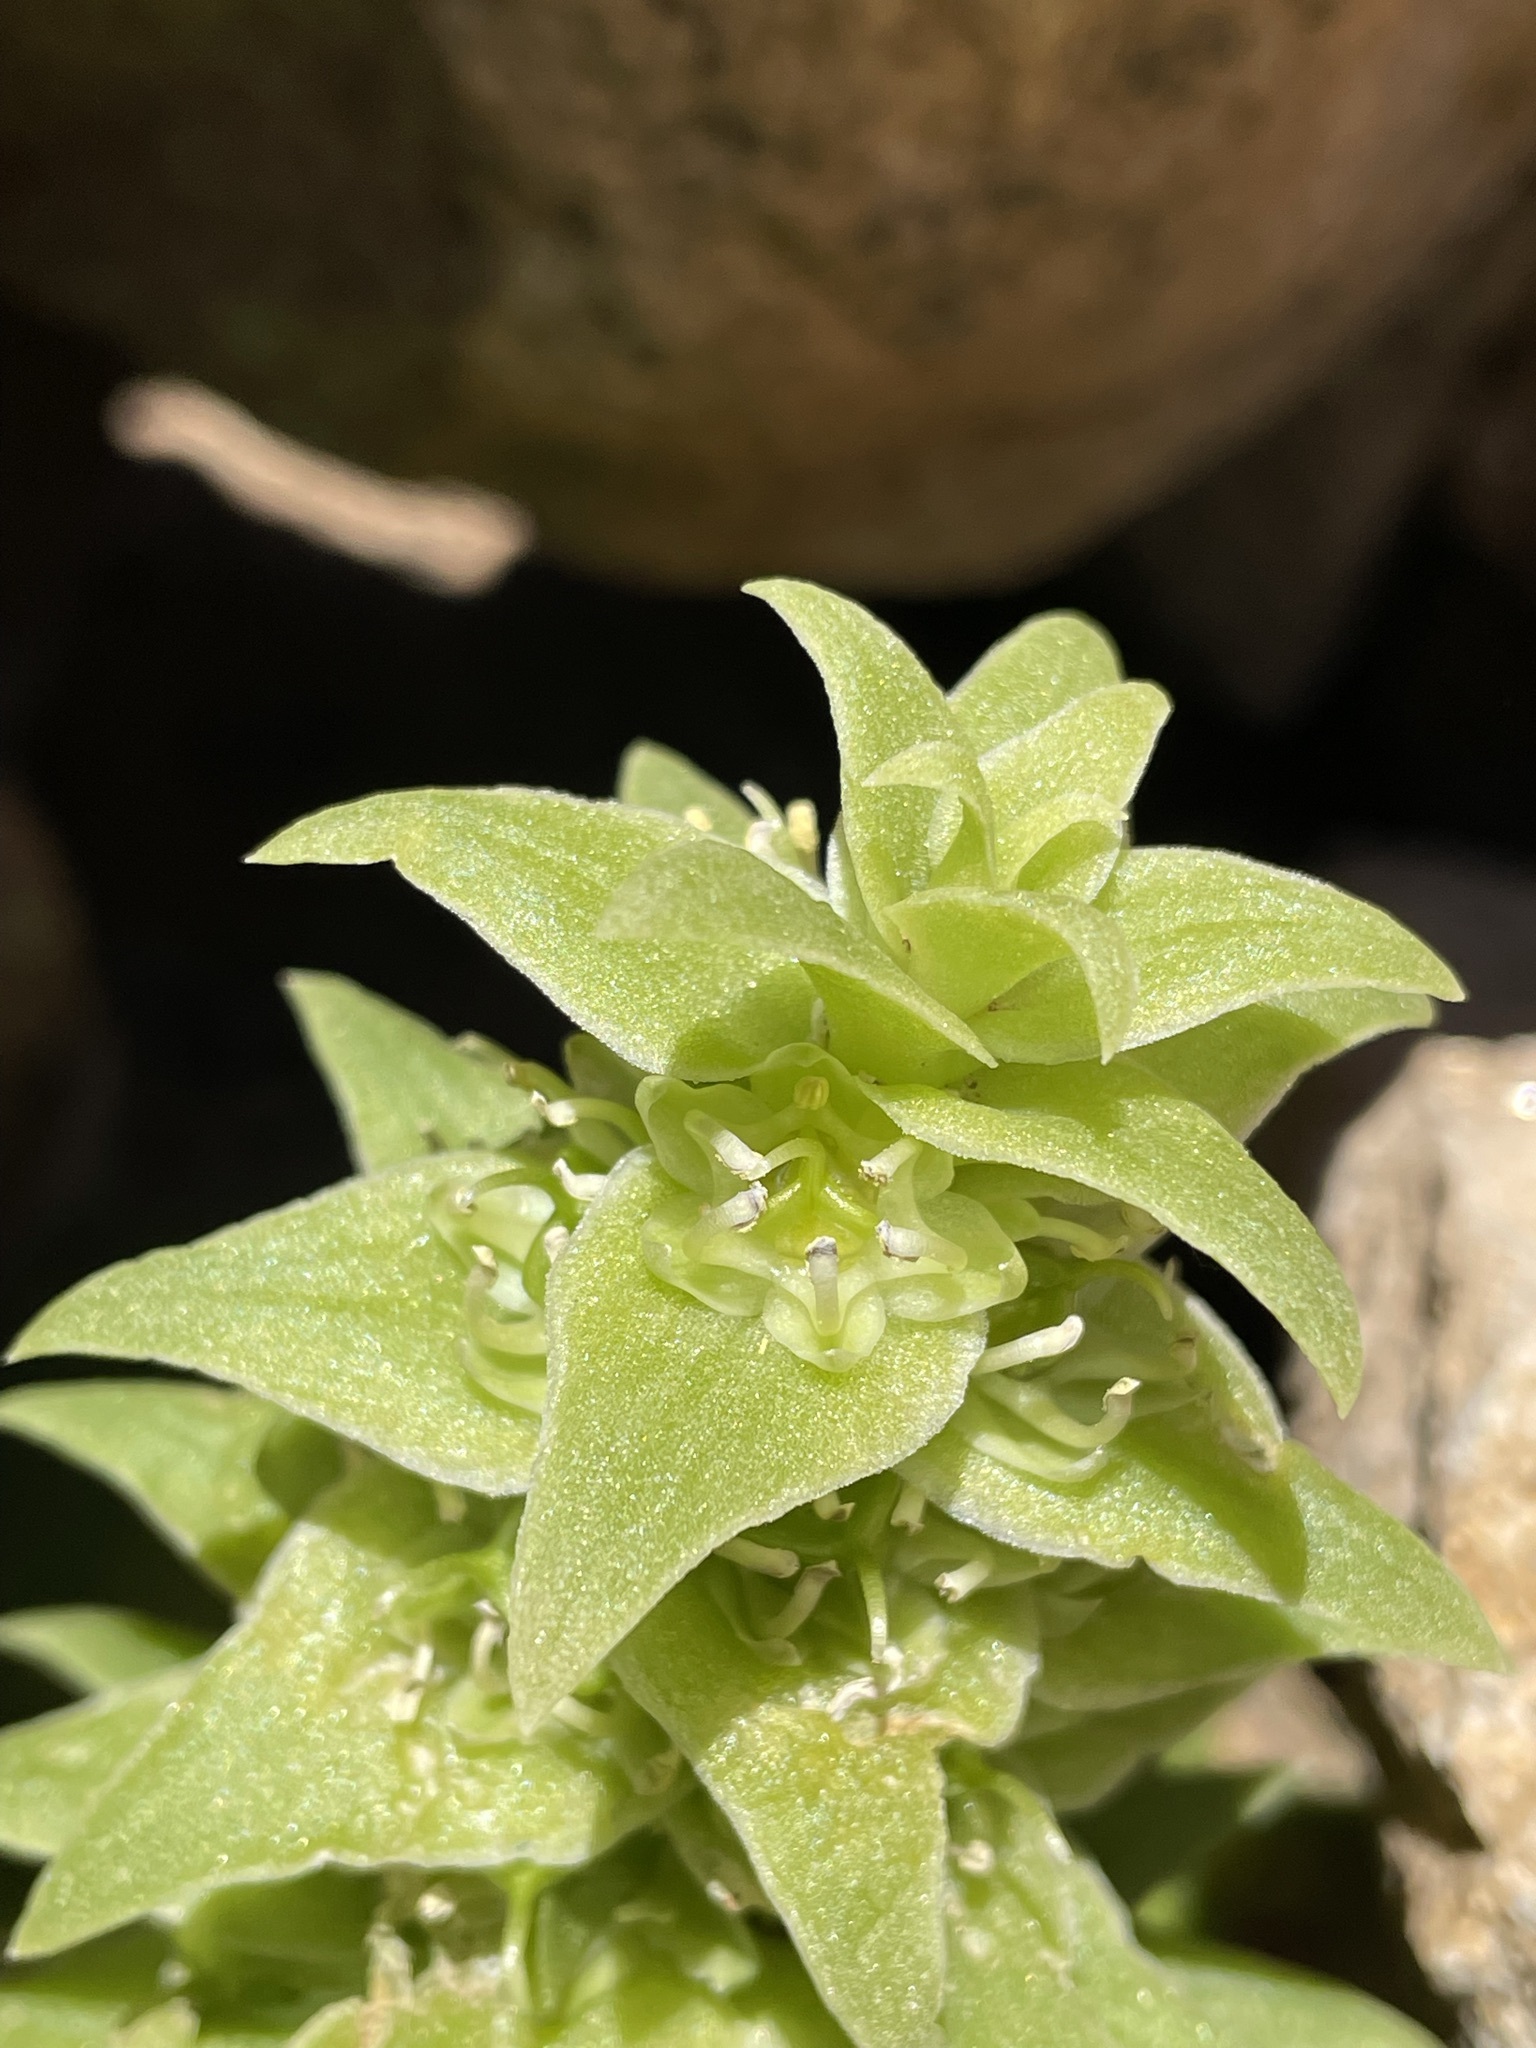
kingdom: Plantae
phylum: Tracheophyta
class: Liliopsida
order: Asparagales
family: Asparagaceae
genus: Massonia
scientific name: Massonia bifolia
